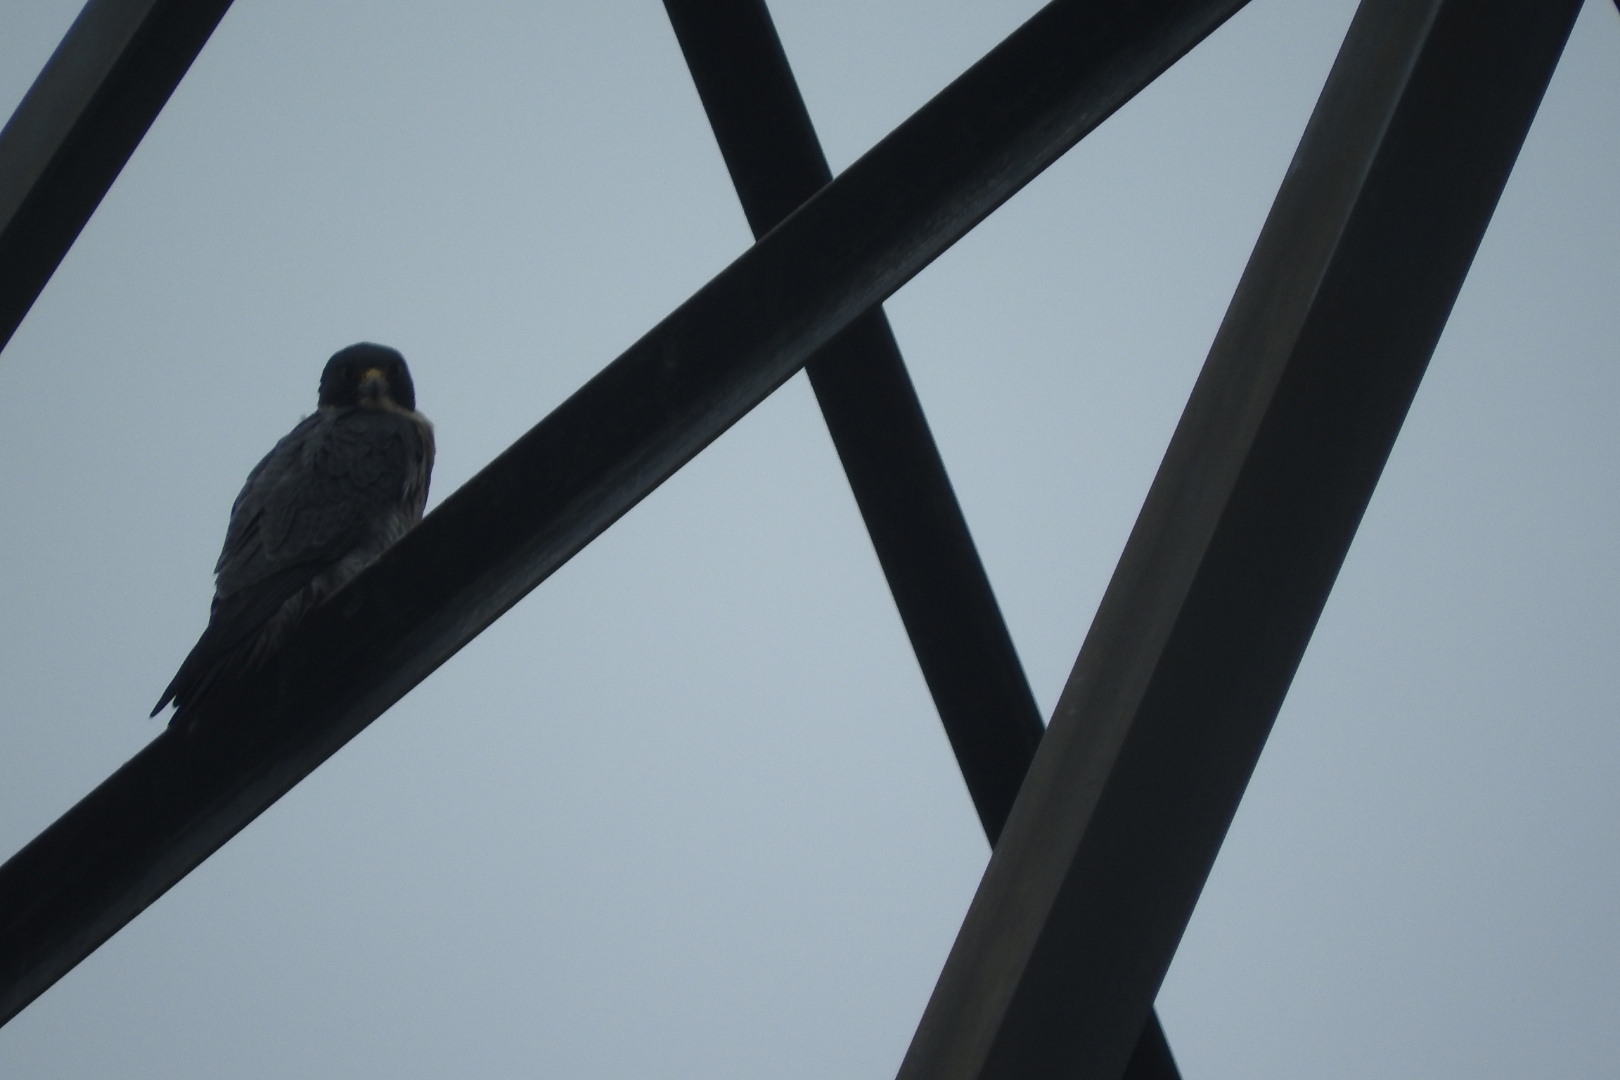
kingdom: Animalia
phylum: Chordata
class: Aves
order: Falconiformes
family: Falconidae
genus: Falco
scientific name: Falco peregrinus
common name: Peregrine falcon
